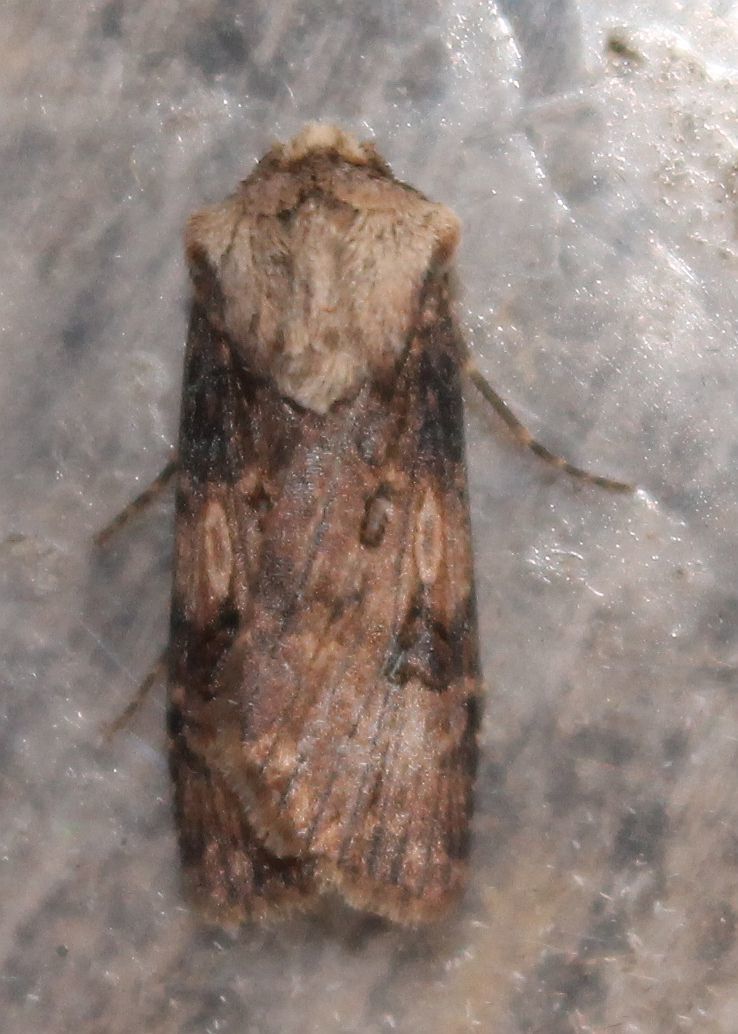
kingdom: Animalia
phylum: Arthropoda
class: Insecta
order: Lepidoptera
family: Noctuidae
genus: Agrotis
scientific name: Agrotis puta
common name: Shuttle-shaped dart
